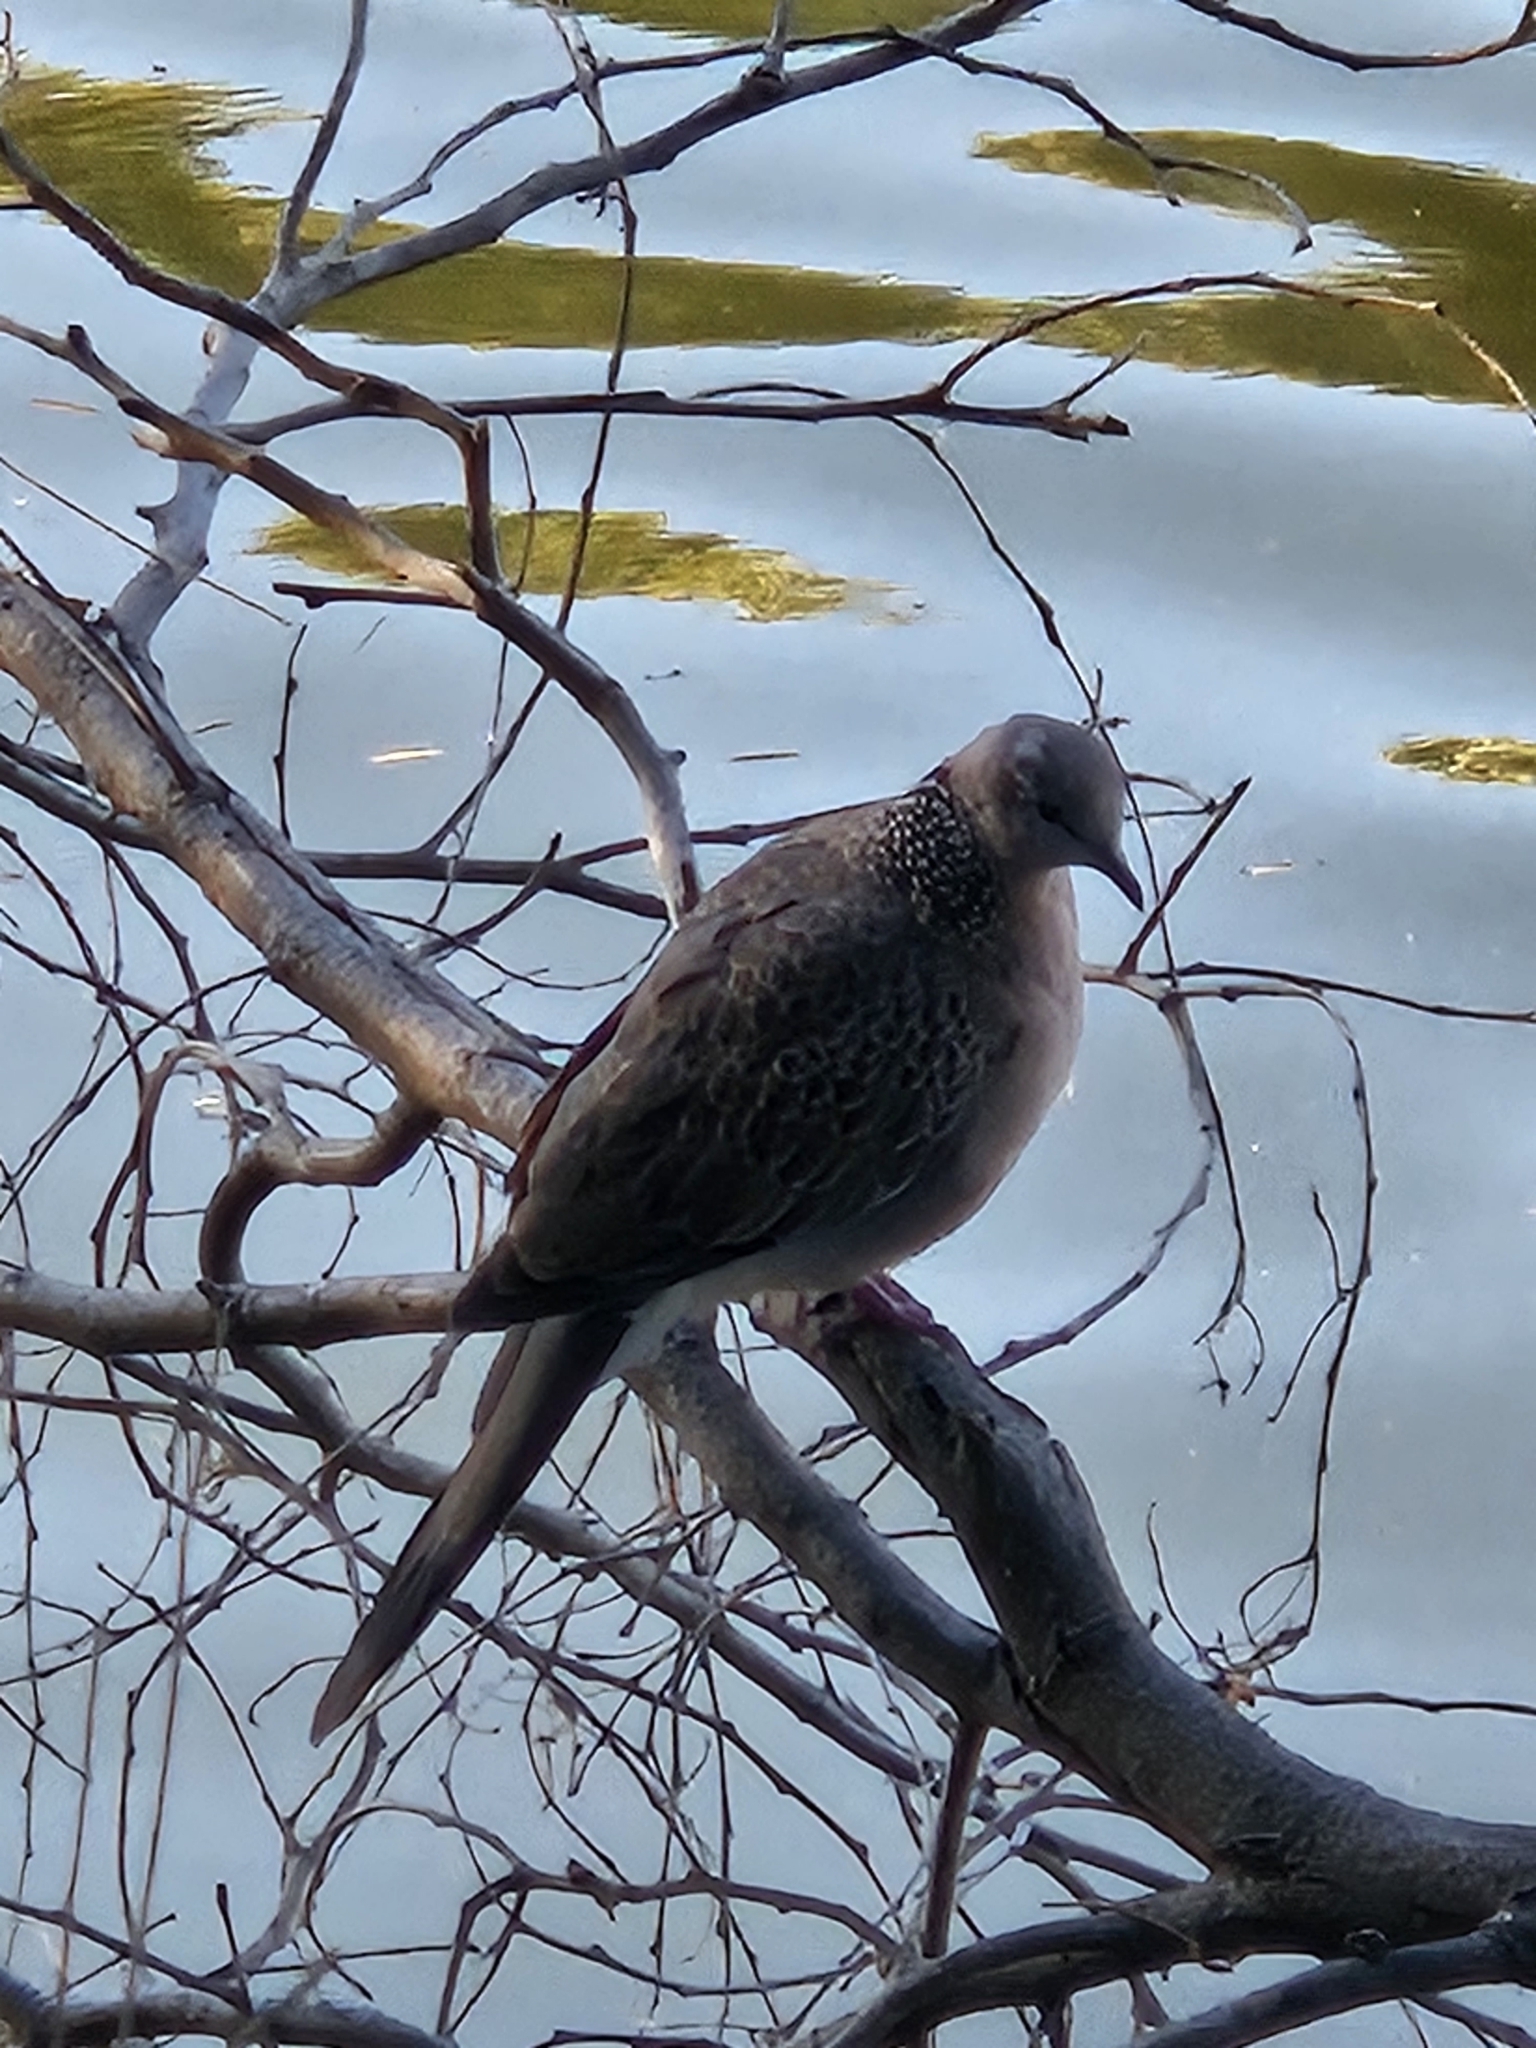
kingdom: Animalia
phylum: Chordata
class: Aves
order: Columbiformes
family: Columbidae
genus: Spilopelia
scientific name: Spilopelia chinensis
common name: Spotted dove
